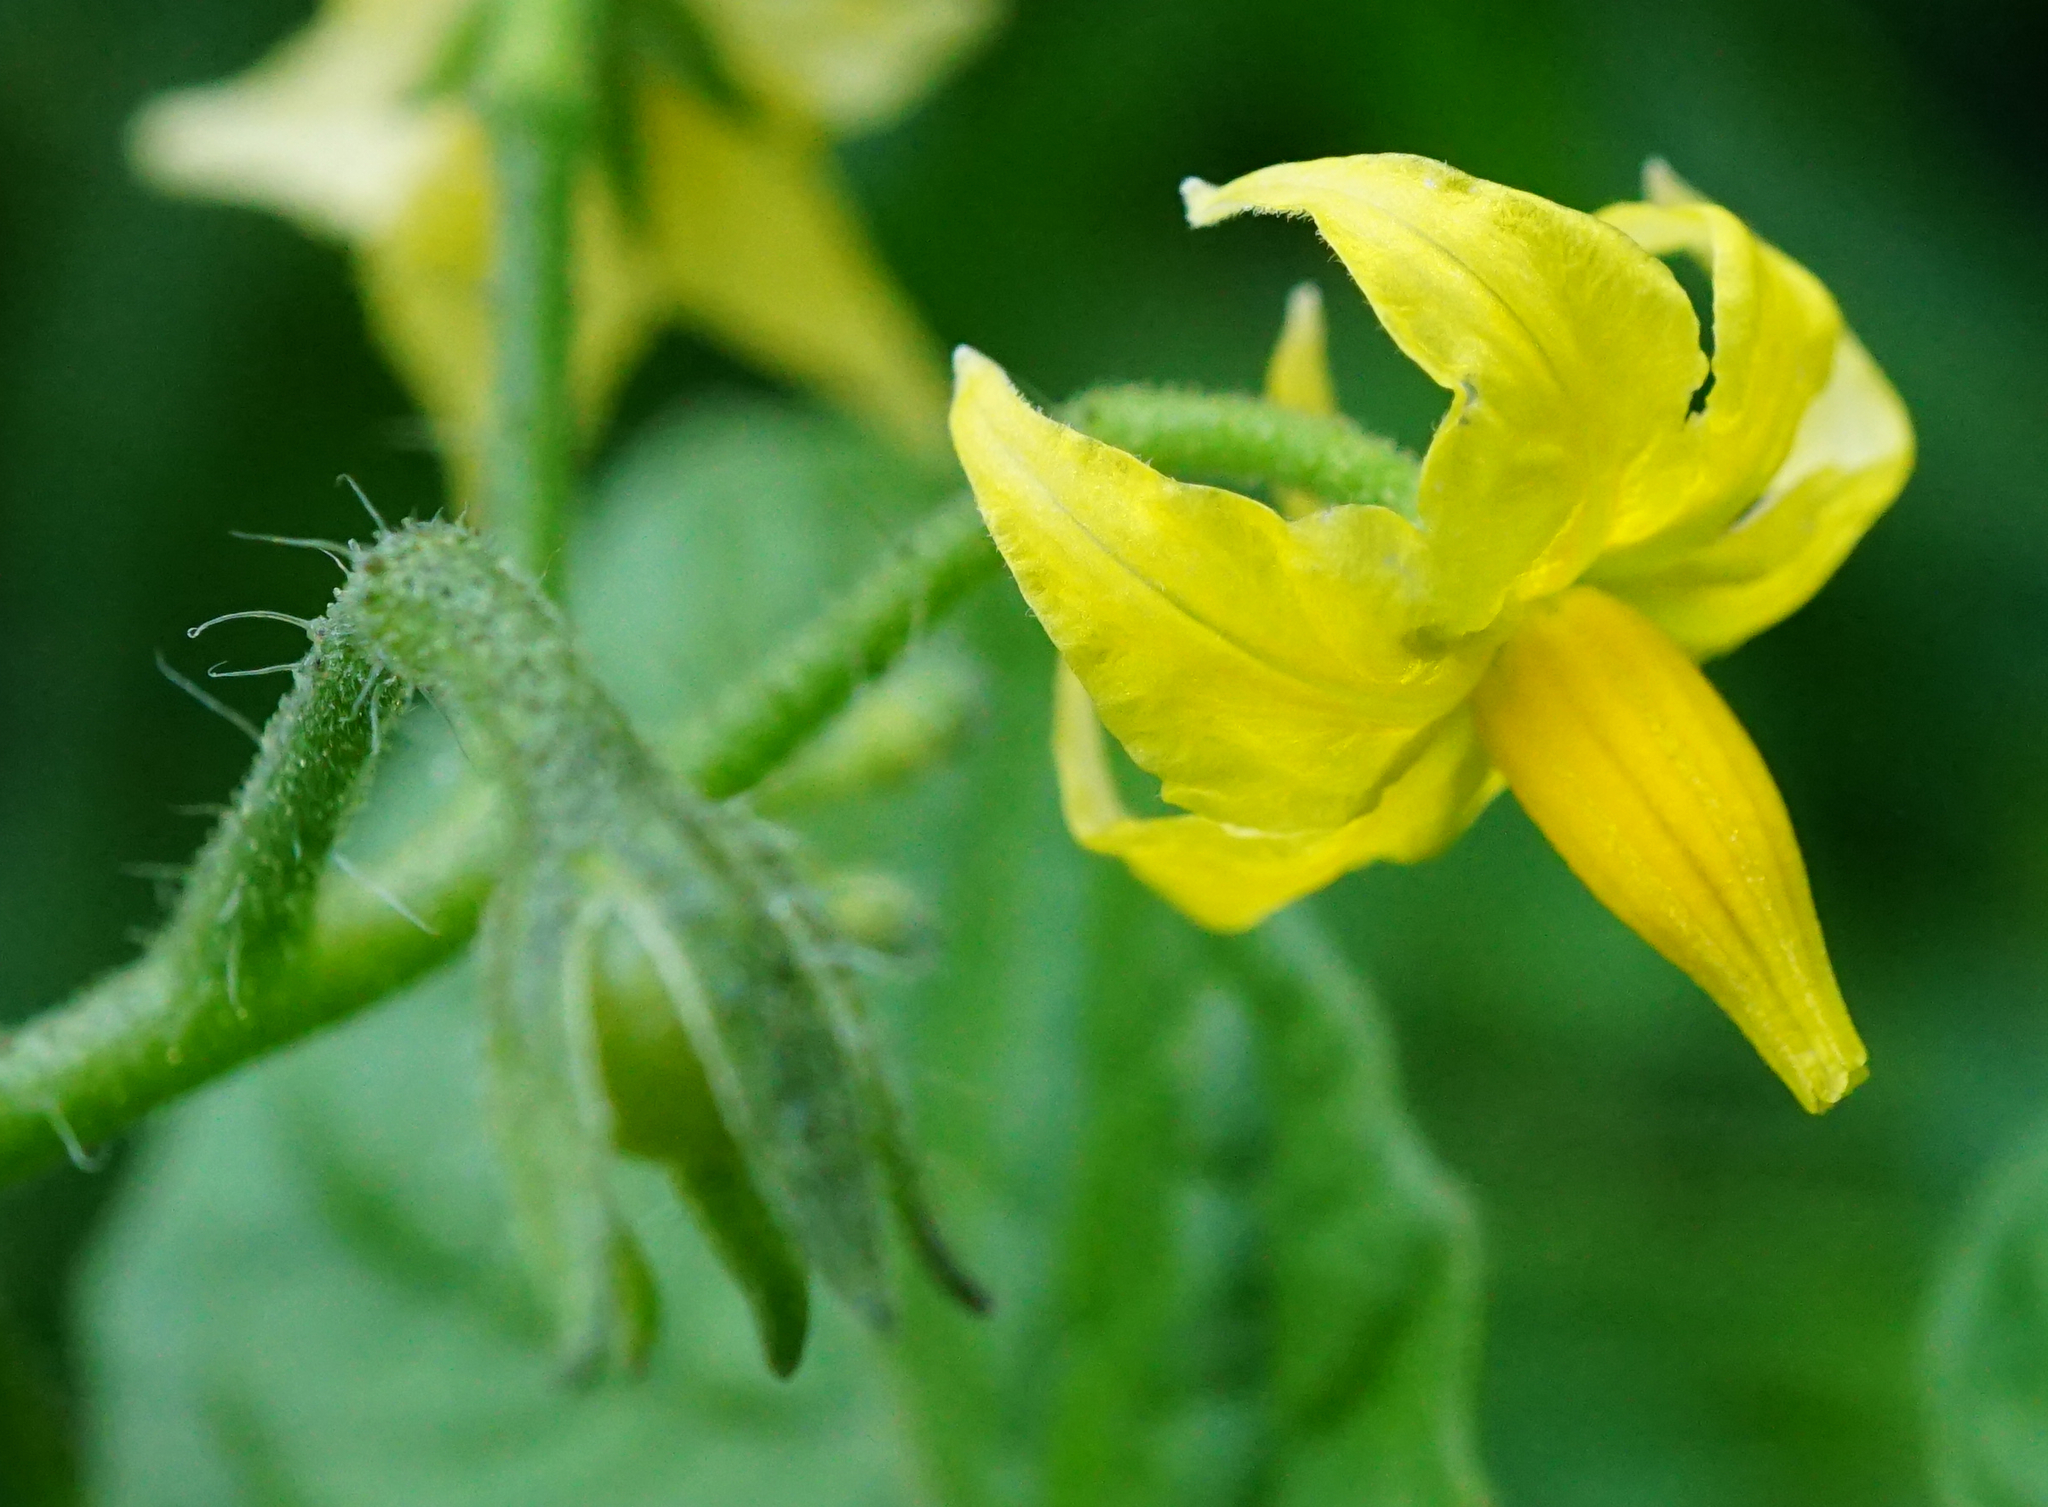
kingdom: Plantae
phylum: Tracheophyta
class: Magnoliopsida
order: Solanales
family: Solanaceae
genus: Solanum
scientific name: Solanum lycopersicum
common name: Garden tomato
